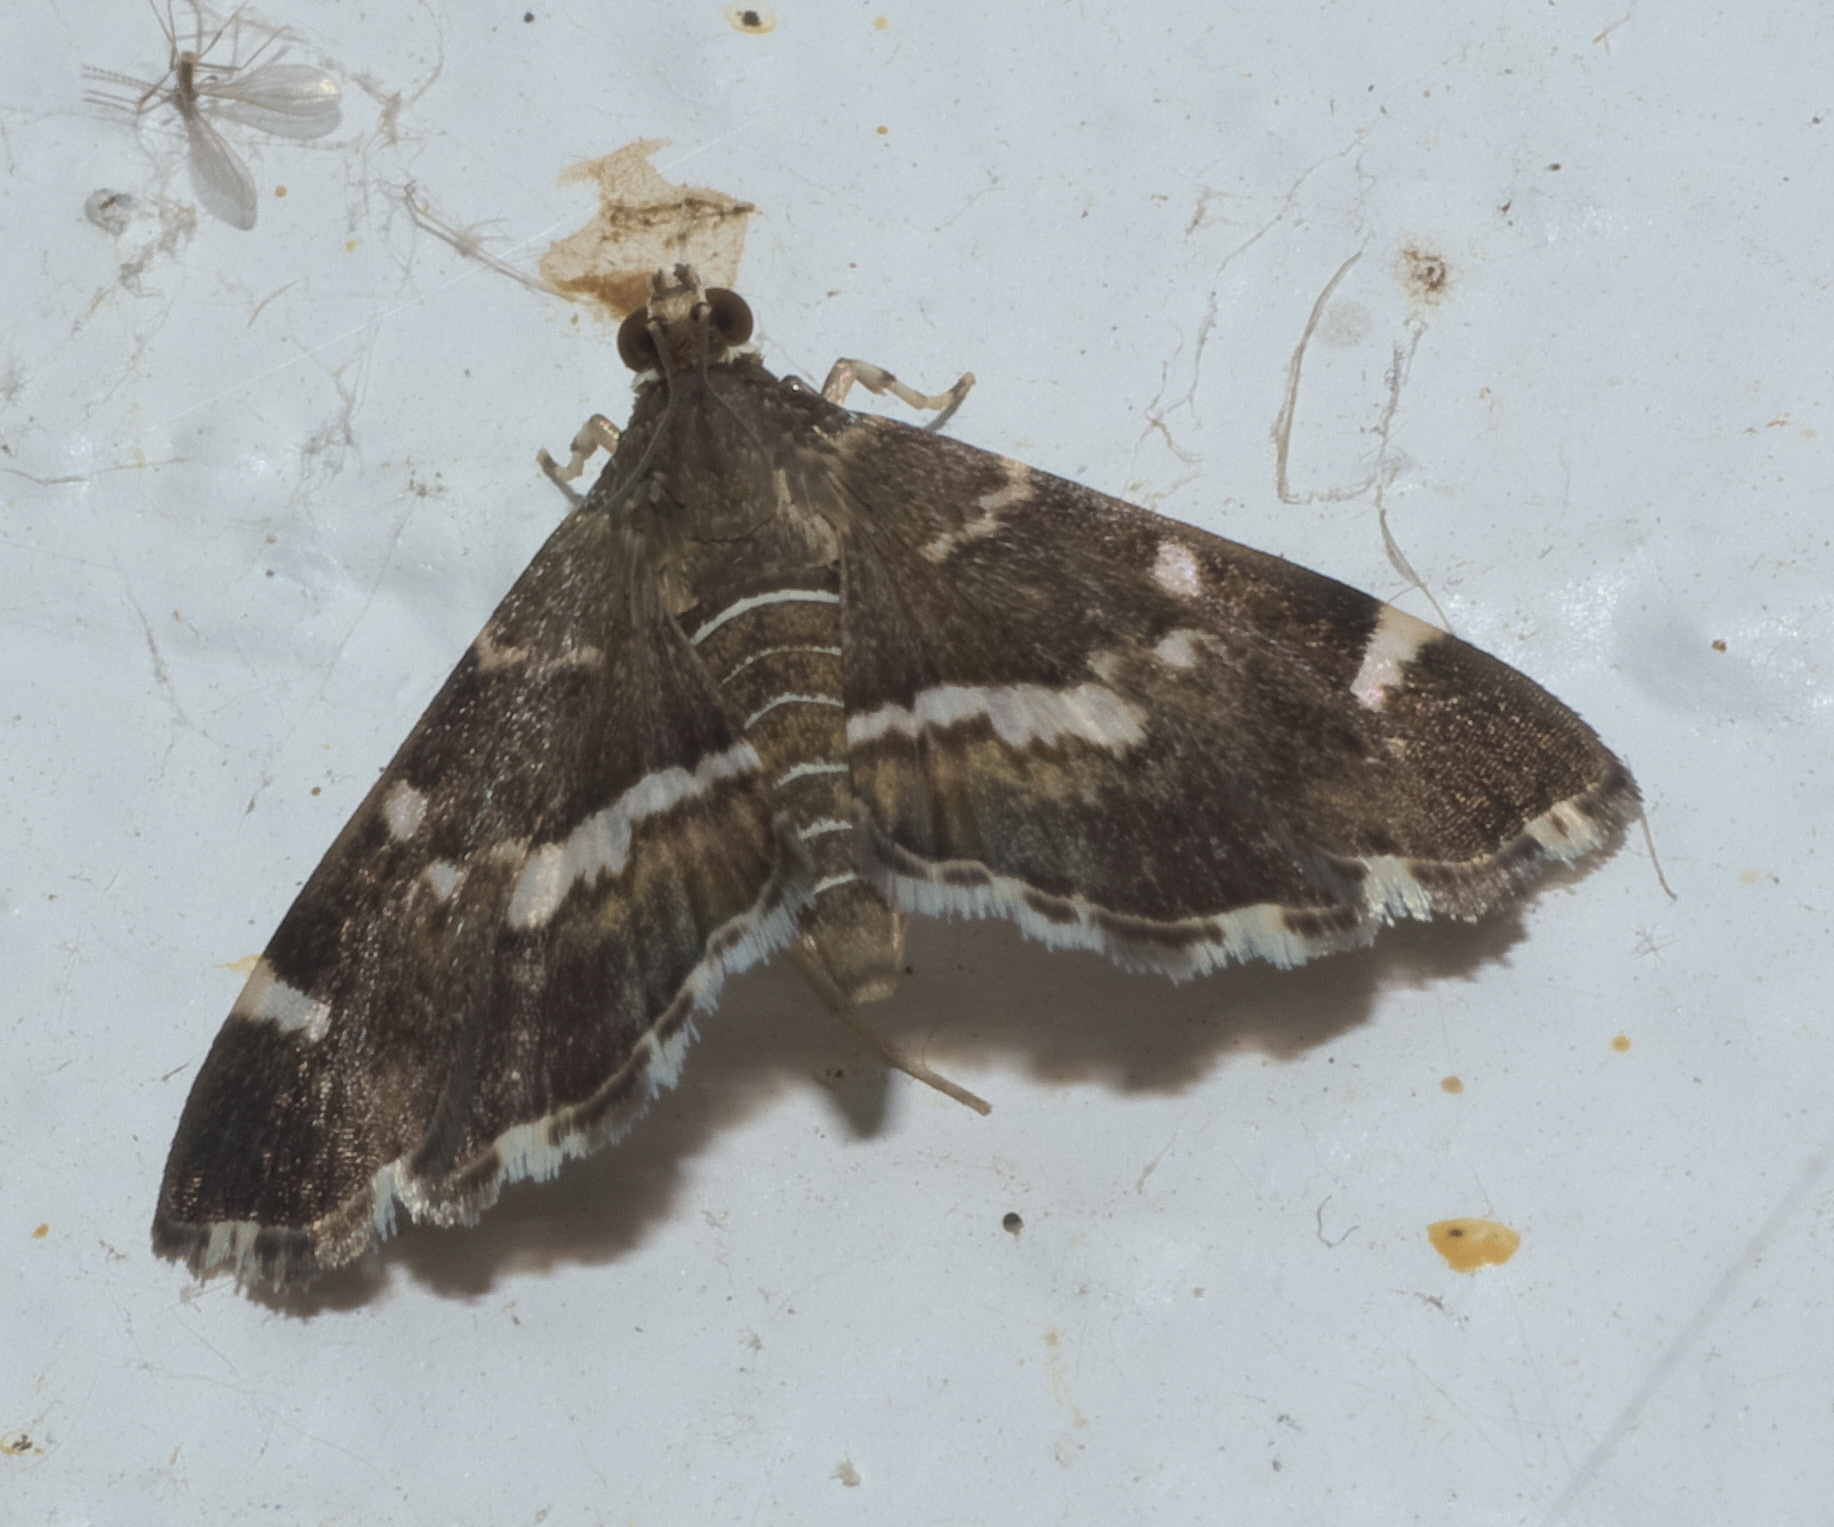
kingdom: Animalia
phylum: Arthropoda
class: Insecta
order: Lepidoptera
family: Crambidae
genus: Hymenia
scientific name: Hymenia perspectalis
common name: Spotted beet webworm
